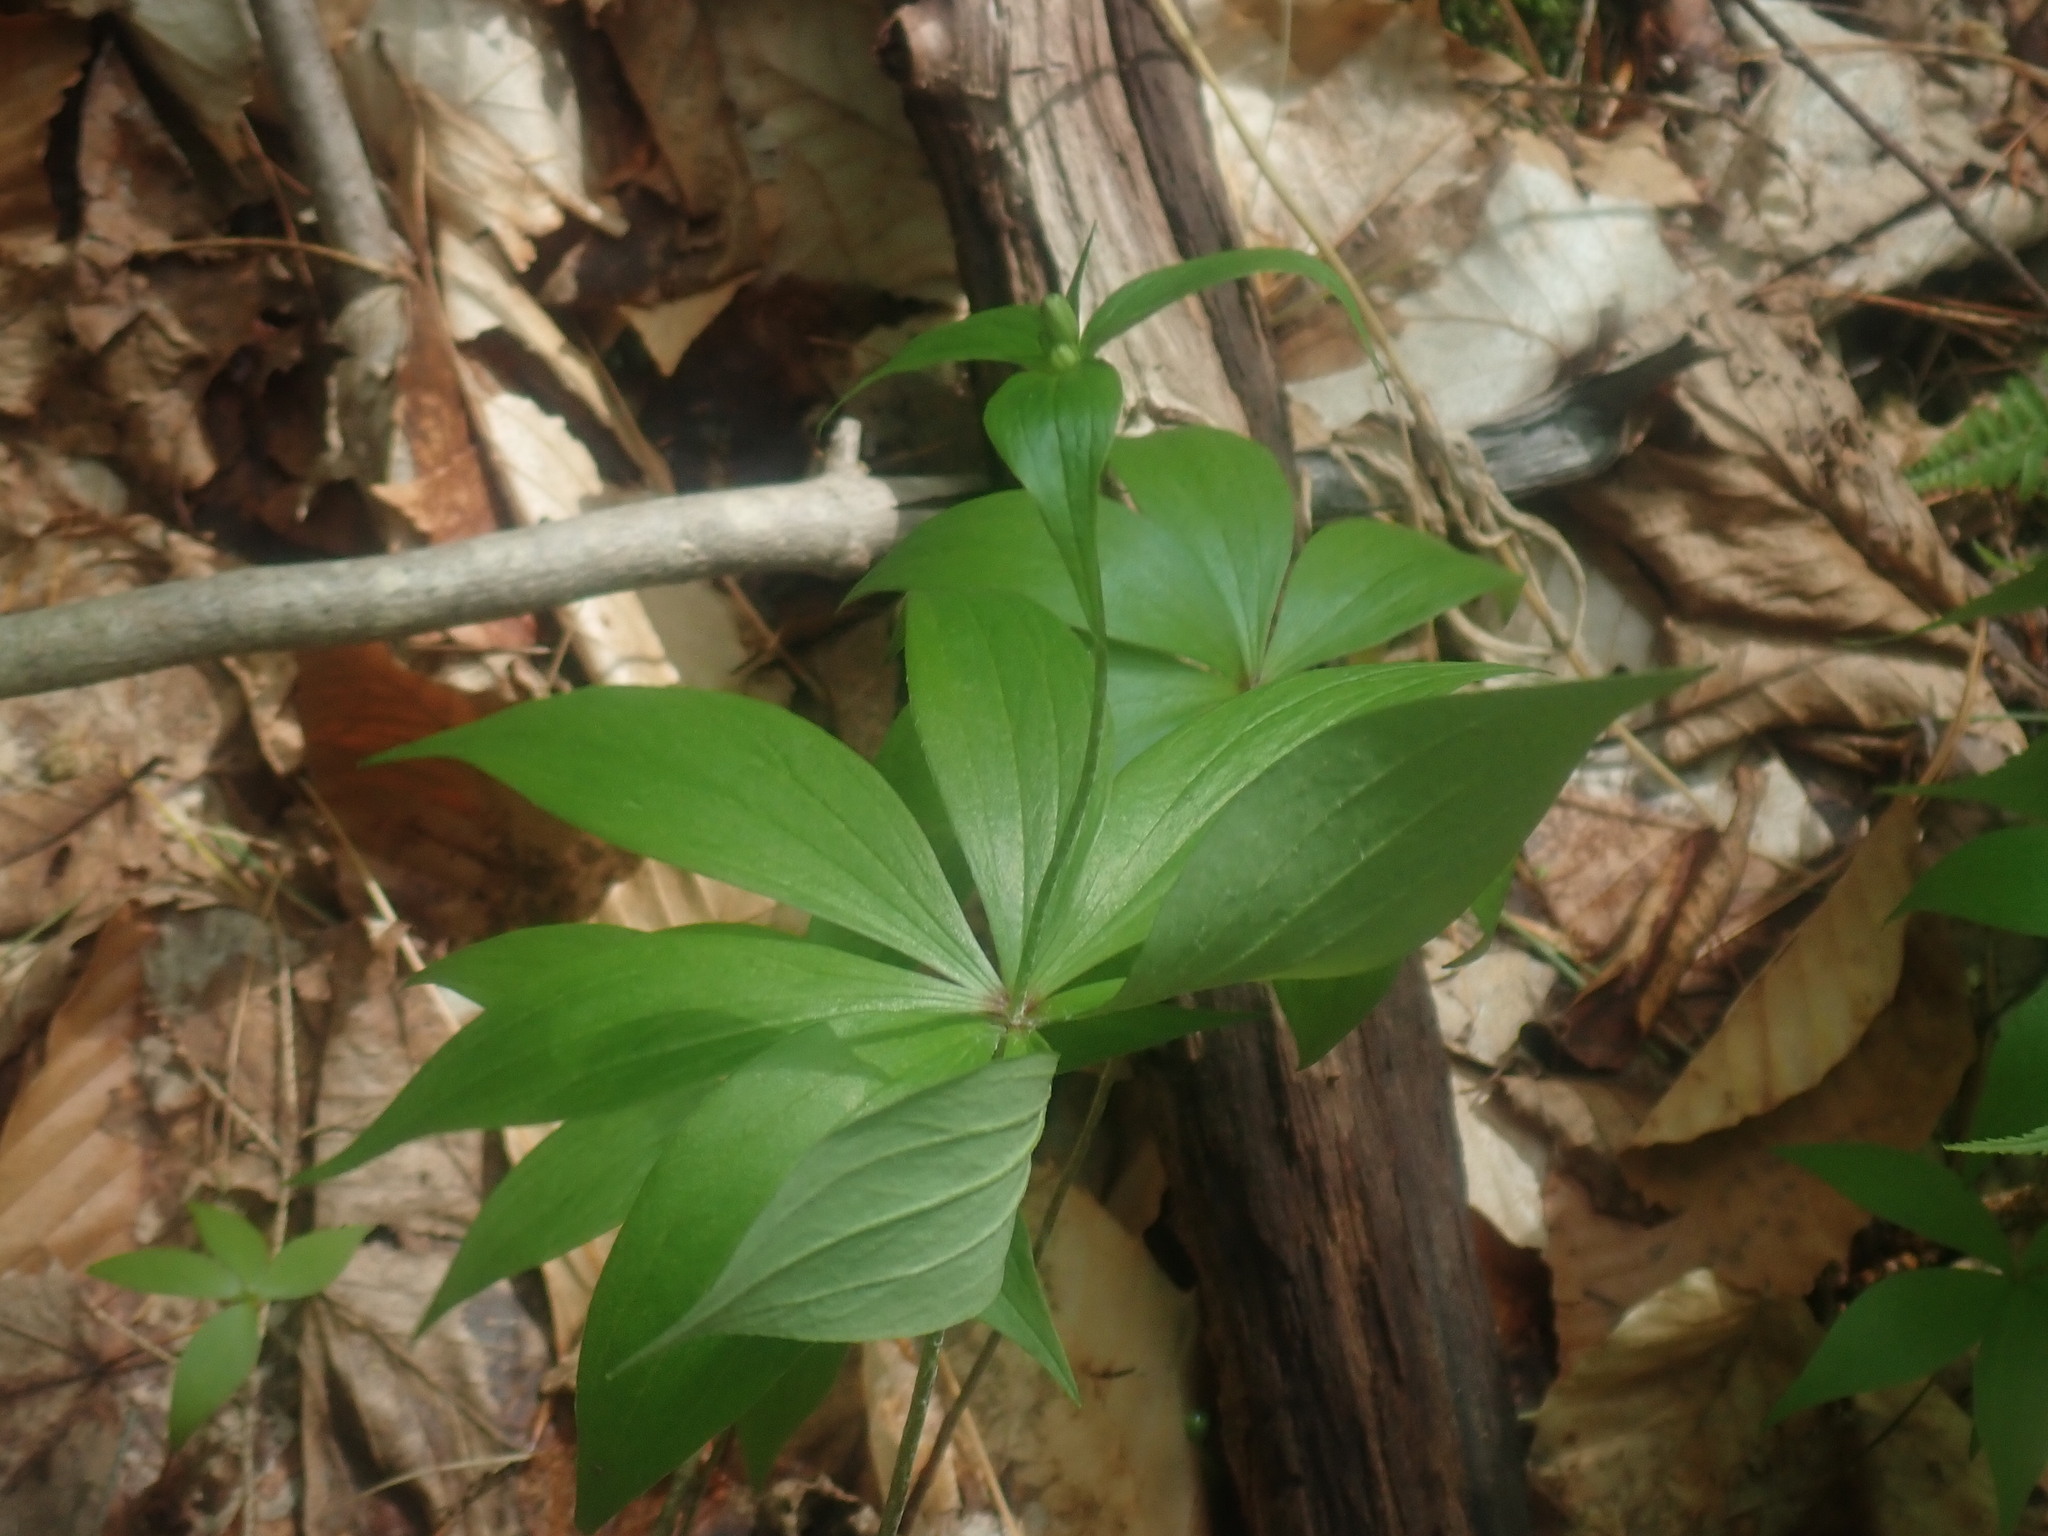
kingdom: Plantae
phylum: Tracheophyta
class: Liliopsida
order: Liliales
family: Liliaceae
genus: Medeola
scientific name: Medeola virginiana
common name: Indian cucumber-root
